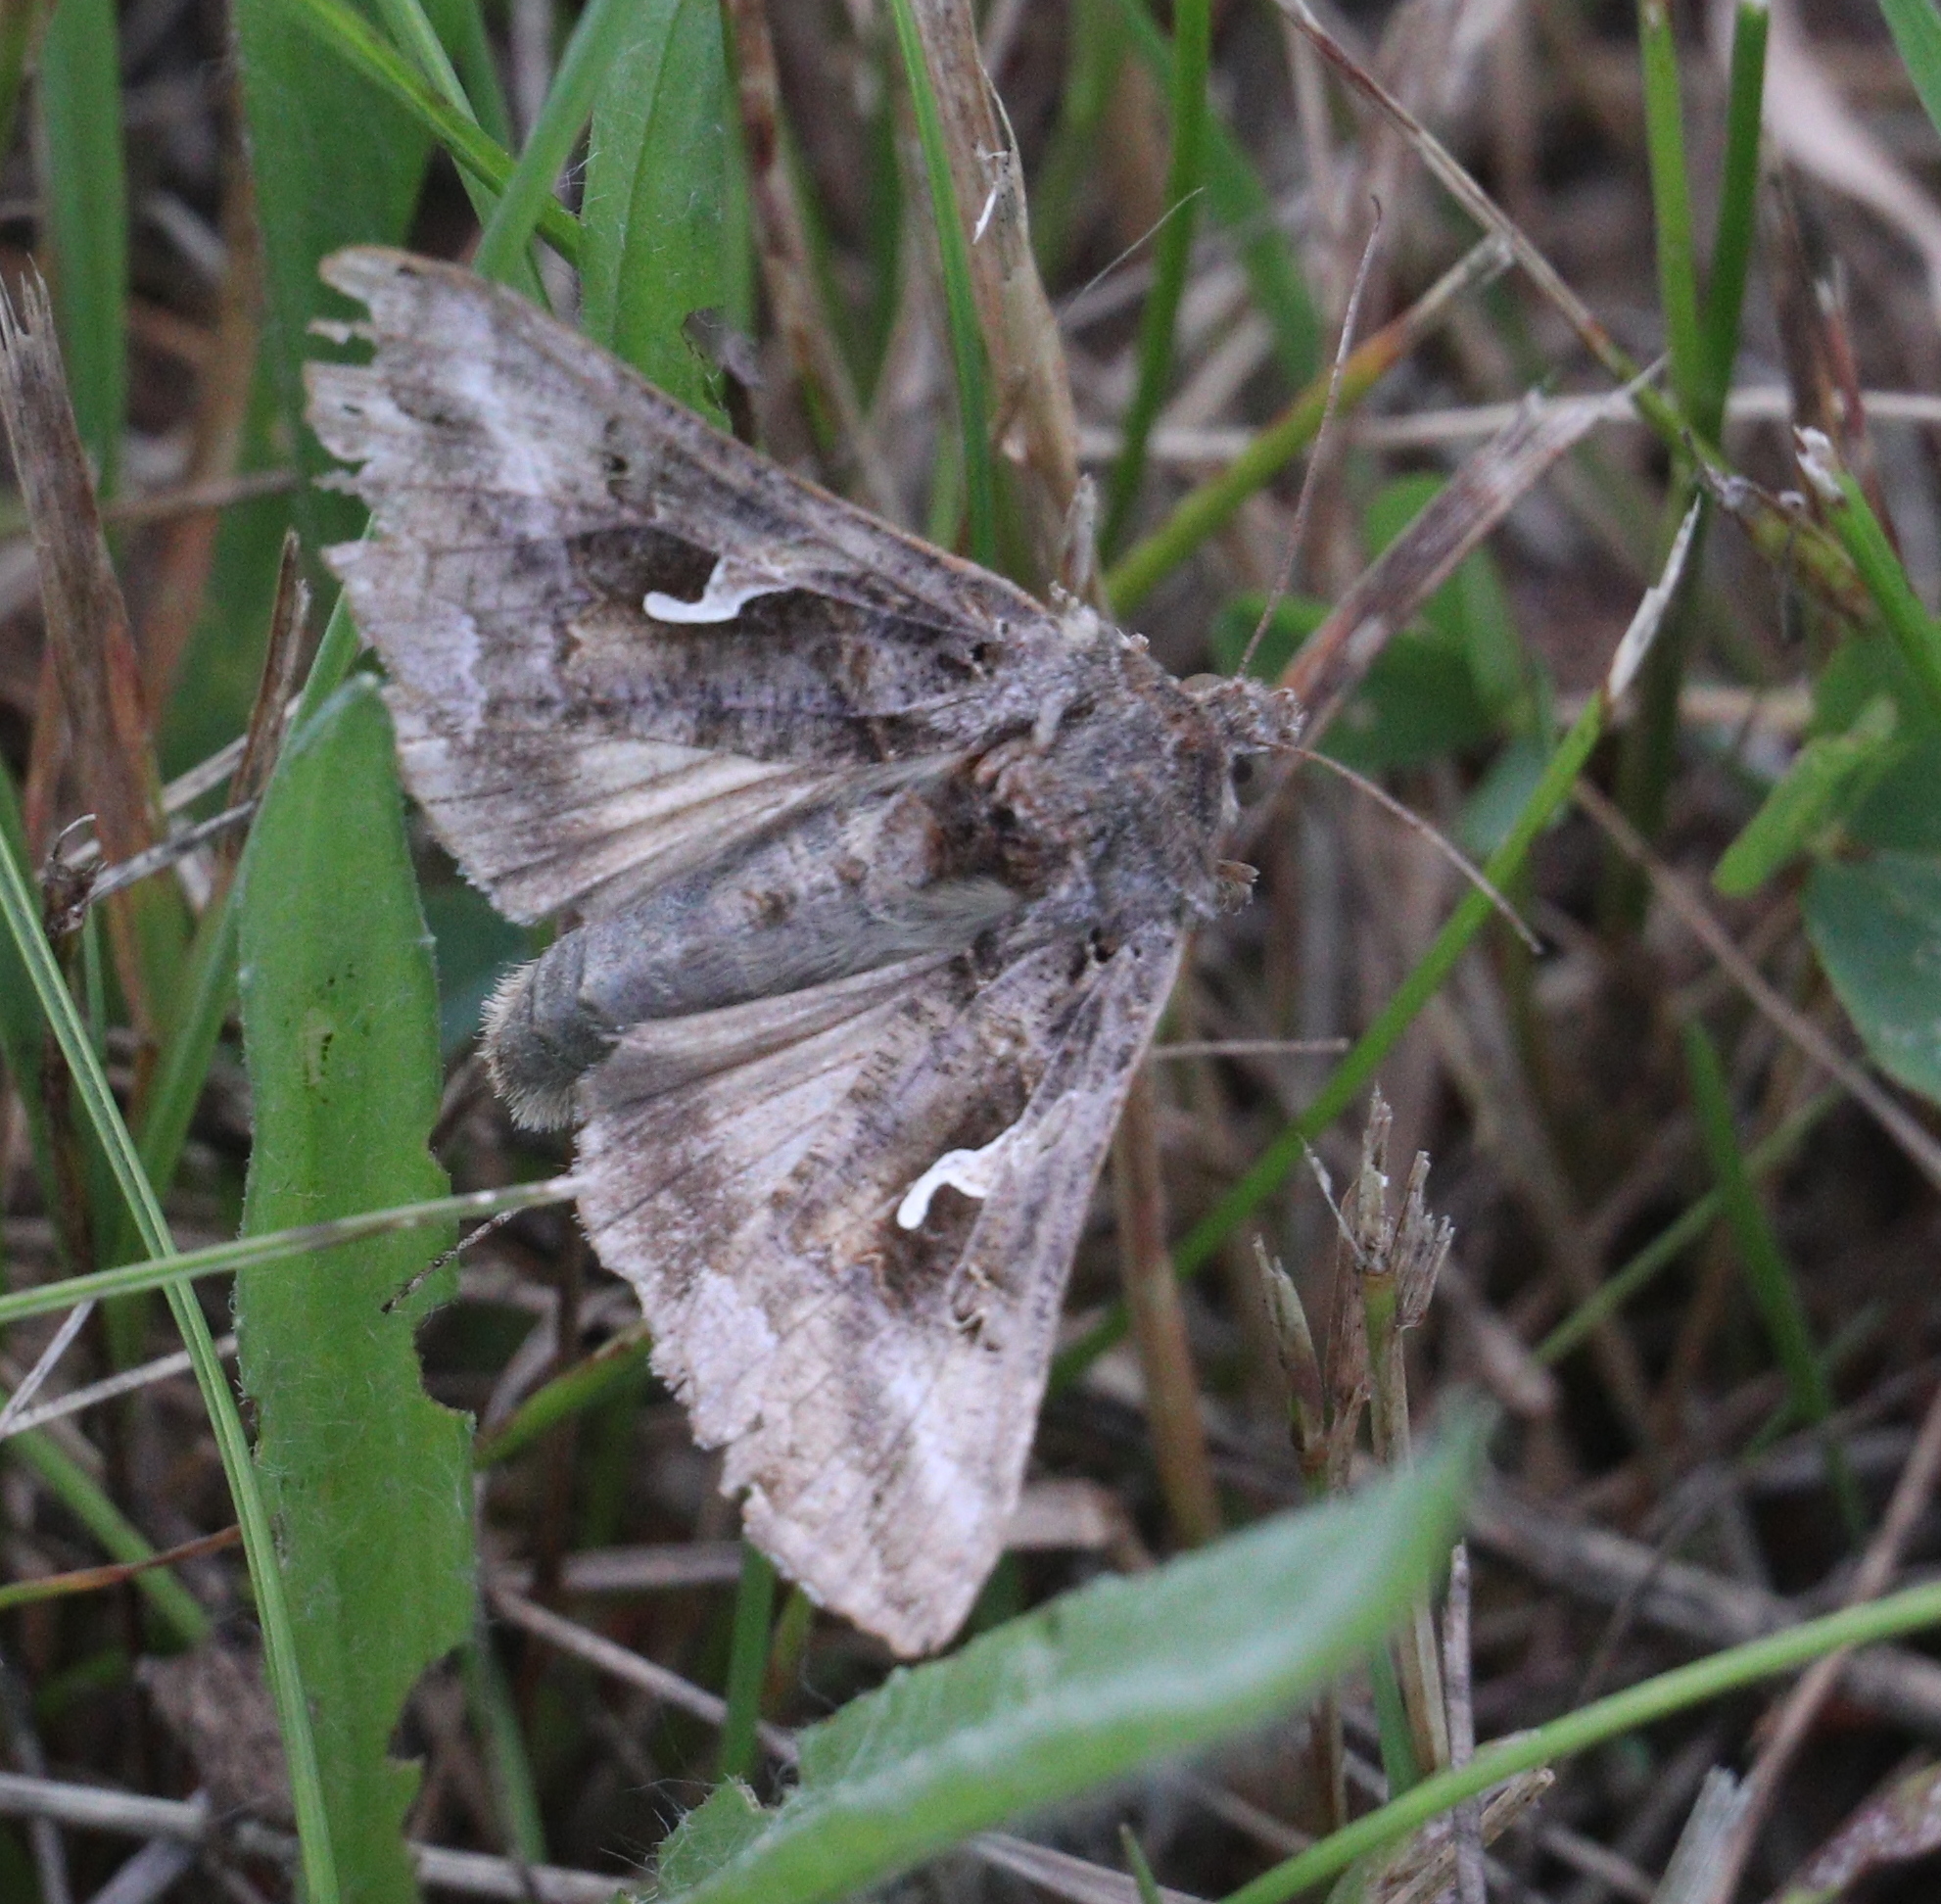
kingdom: Animalia
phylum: Arthropoda
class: Insecta
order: Lepidoptera
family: Noctuidae
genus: Autographa
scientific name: Autographa gamma
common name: Silver y
